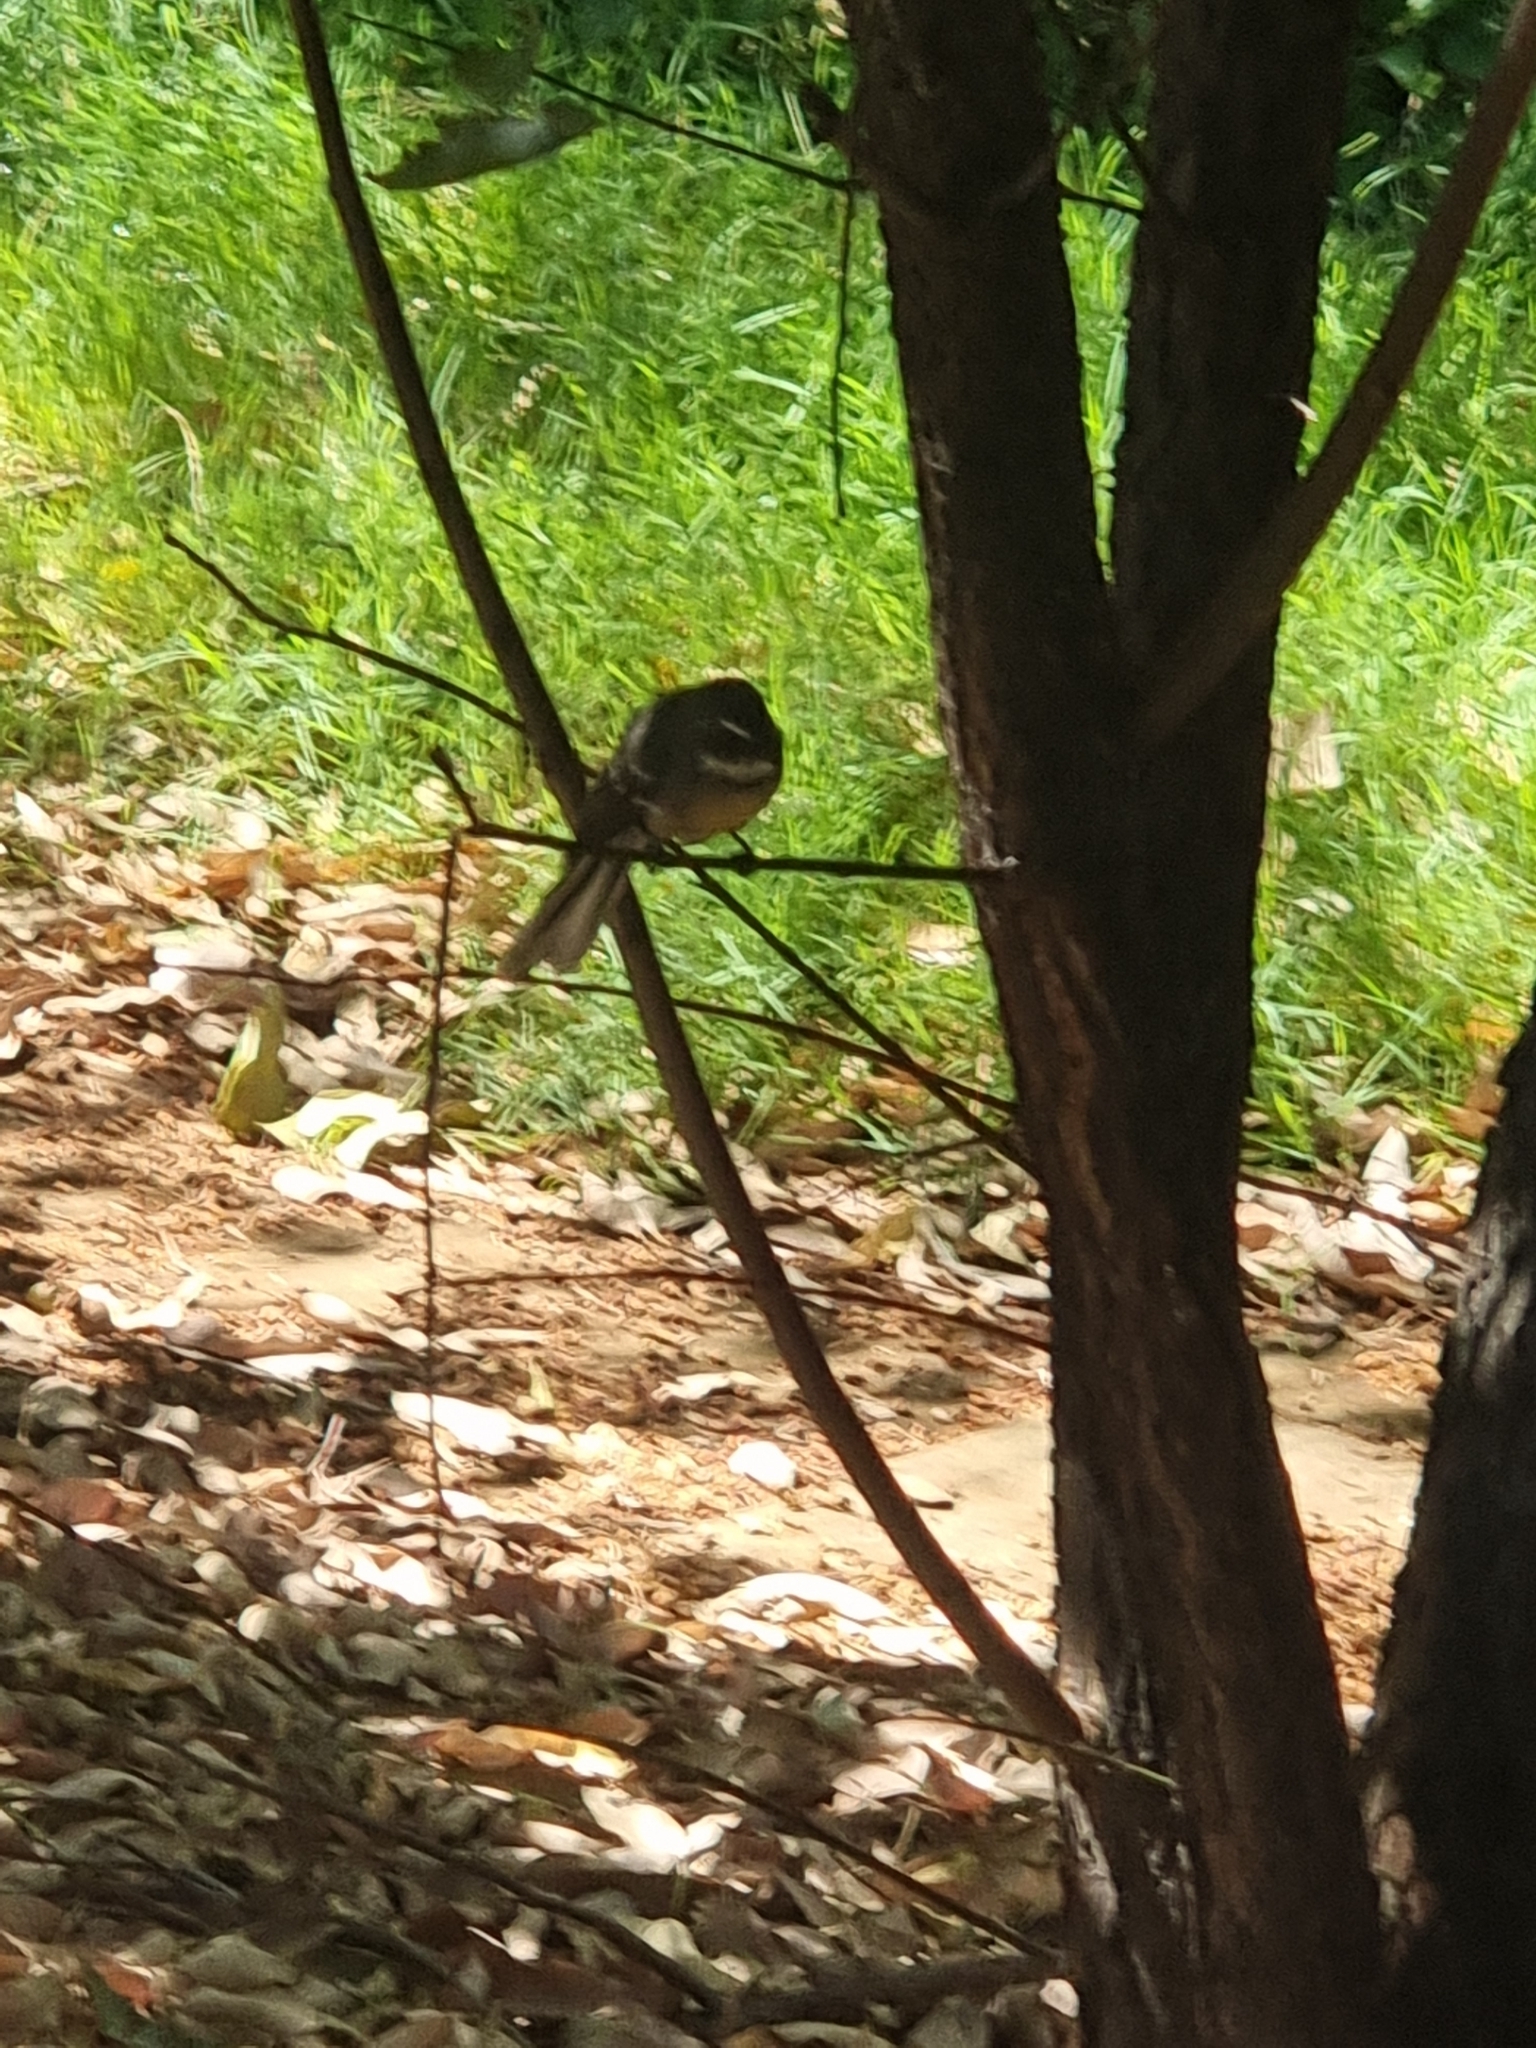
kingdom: Animalia
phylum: Chordata
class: Aves
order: Passeriformes
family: Rhipiduridae
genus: Rhipidura
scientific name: Rhipidura albiscapa
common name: Grey fantail
